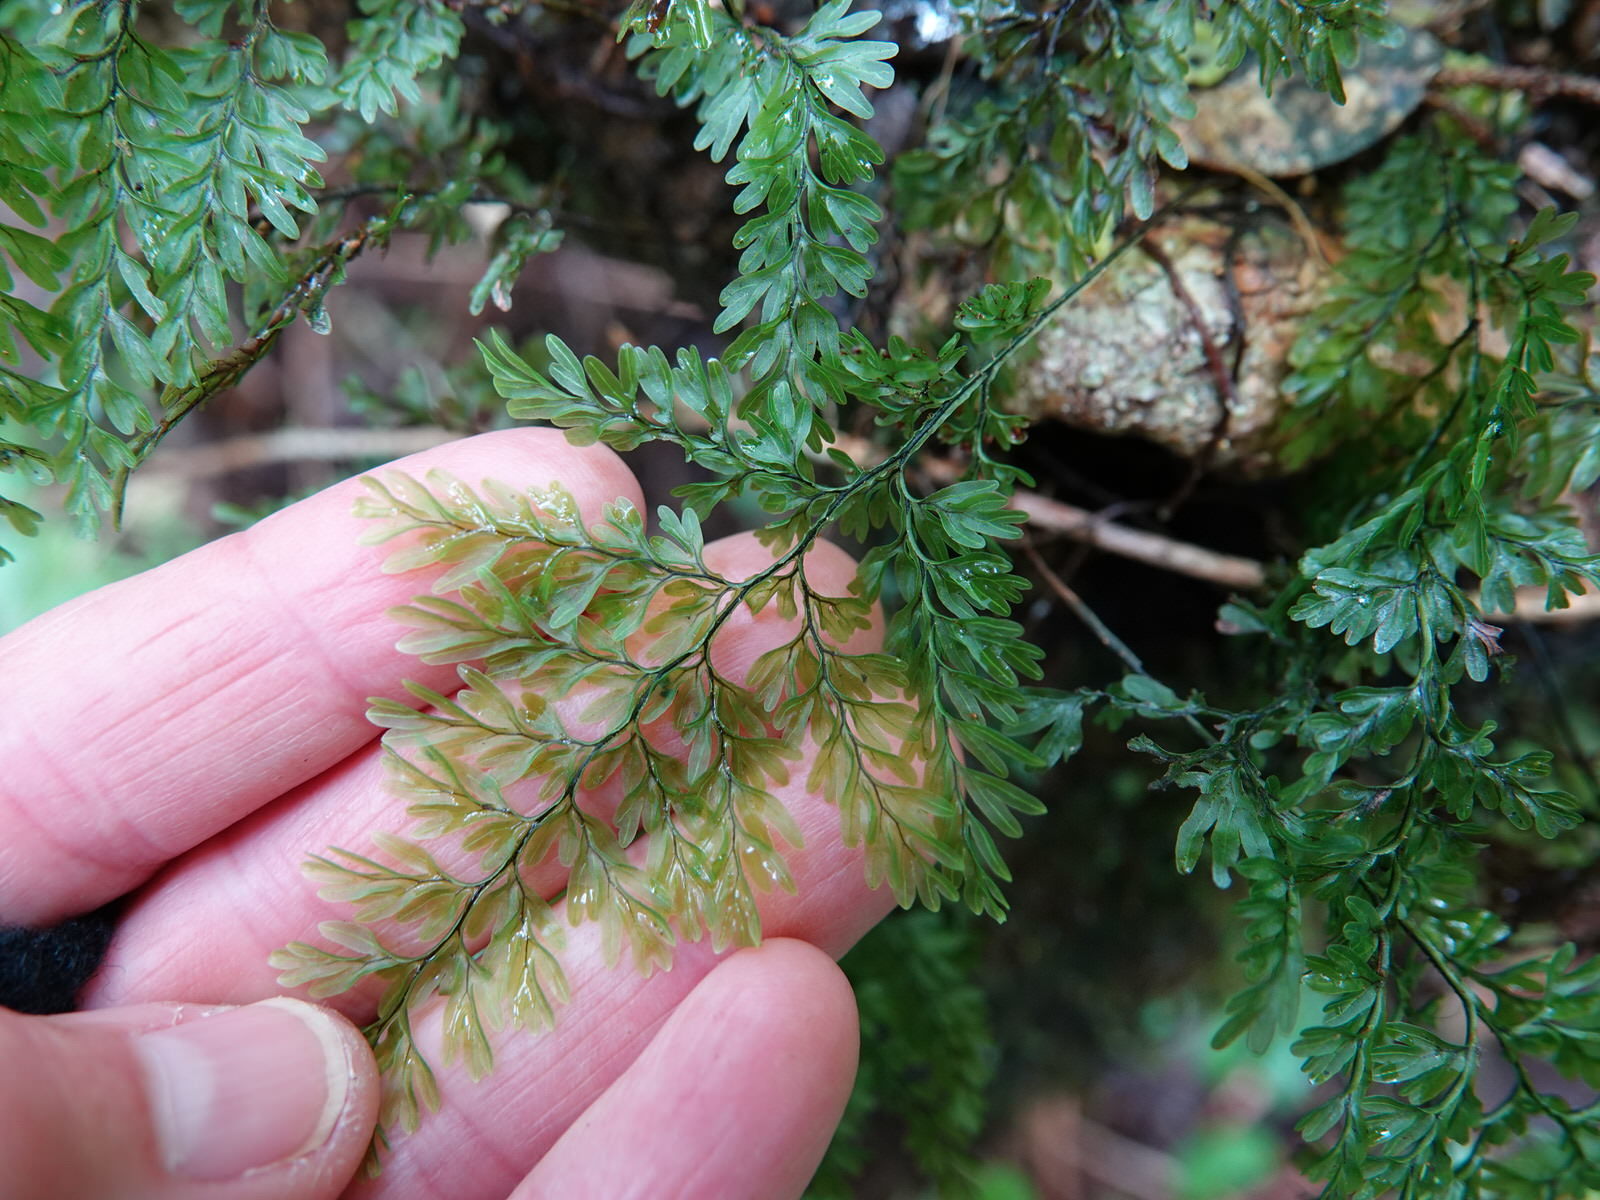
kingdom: Plantae
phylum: Tracheophyta
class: Polypodiopsida
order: Hymenophyllales
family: Hymenophyllaceae
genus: Hymenophyllum
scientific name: Hymenophyllum sanguinolentum
